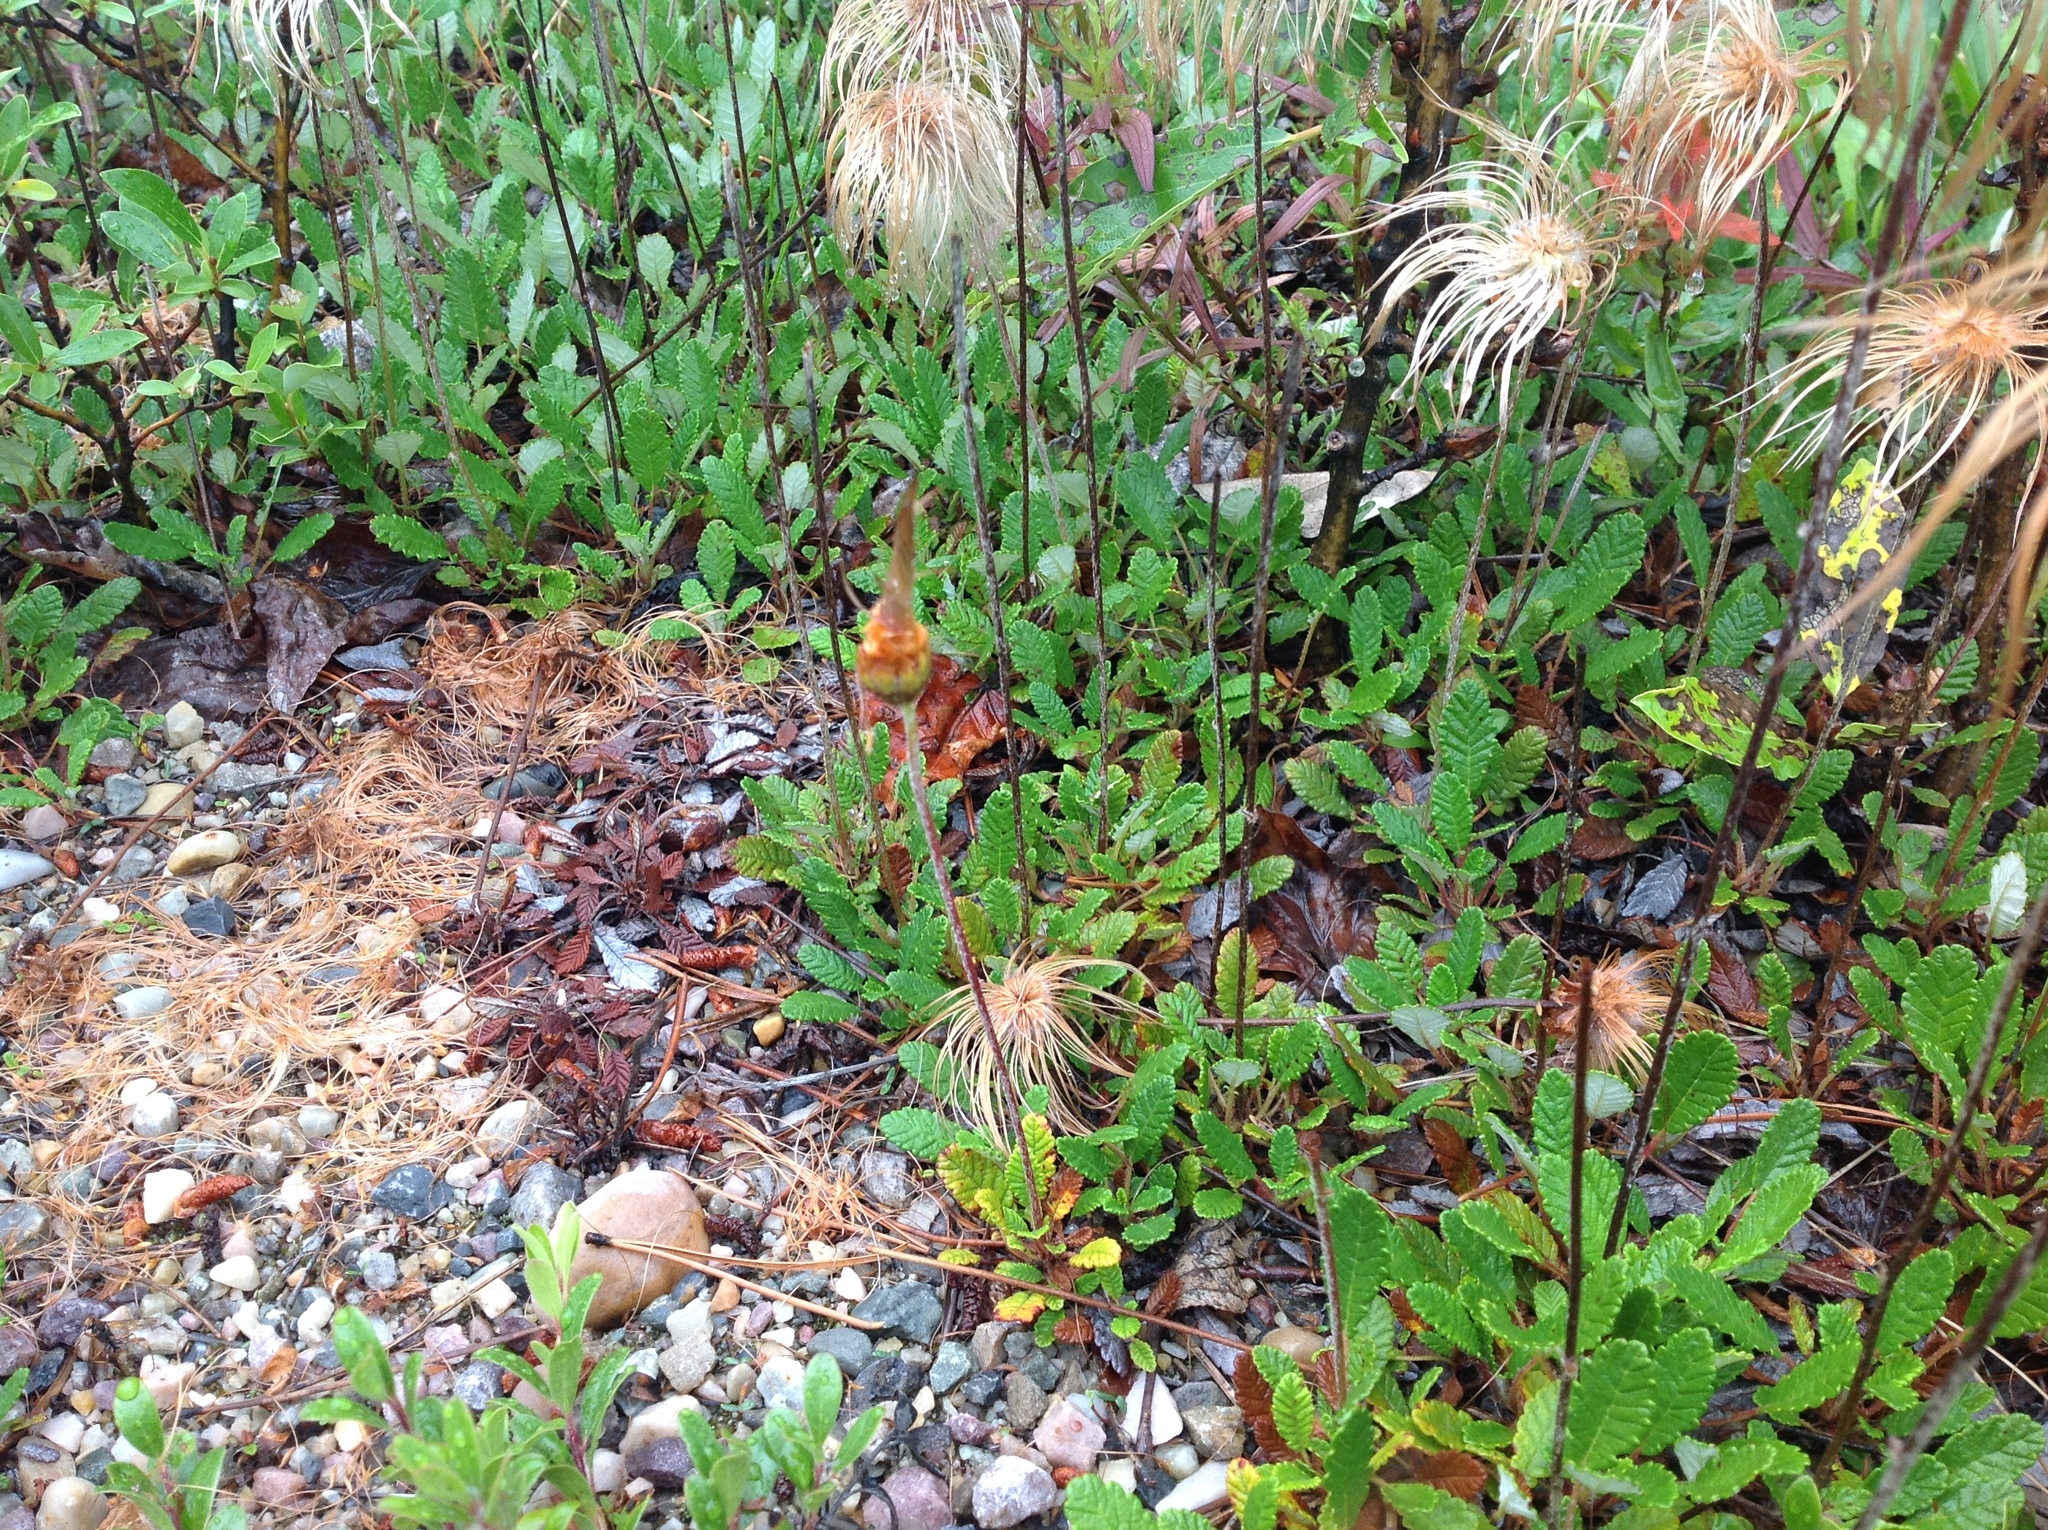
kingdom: Plantae
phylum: Tracheophyta
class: Magnoliopsida
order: Rosales
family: Rosaceae
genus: Dryas
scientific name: Dryas drummondii
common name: Drummond's dryad
